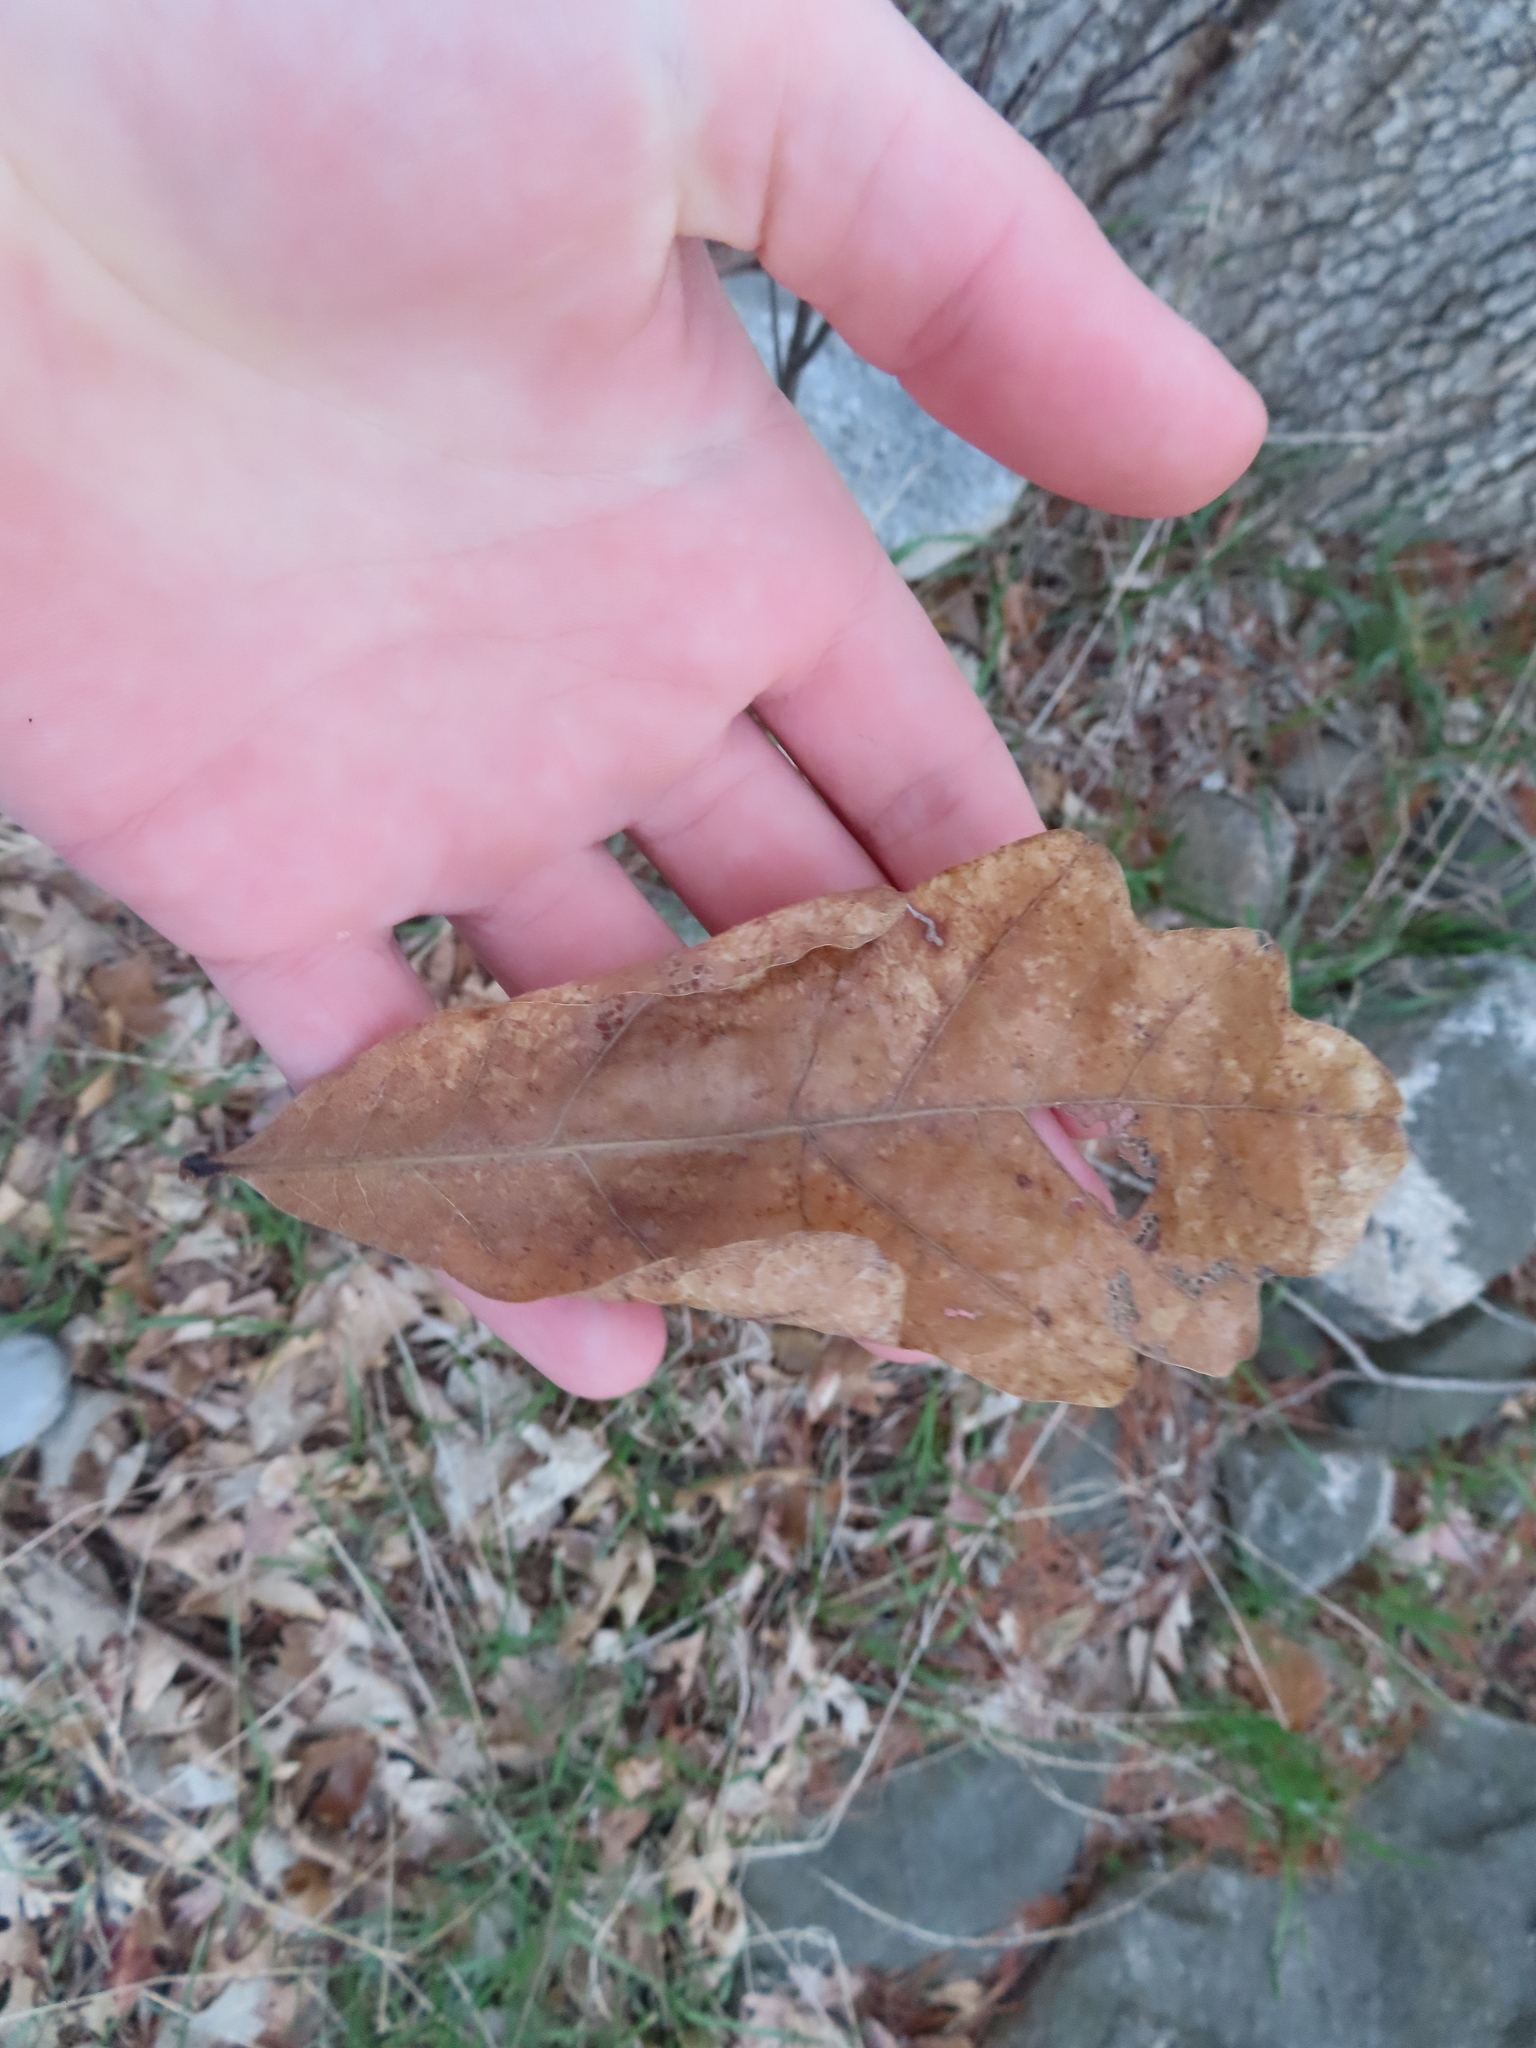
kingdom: Plantae
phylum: Tracheophyta
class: Magnoliopsida
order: Fagales
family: Fagaceae
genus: Quercus
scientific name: Quercus bicolor
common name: Swamp white oak
